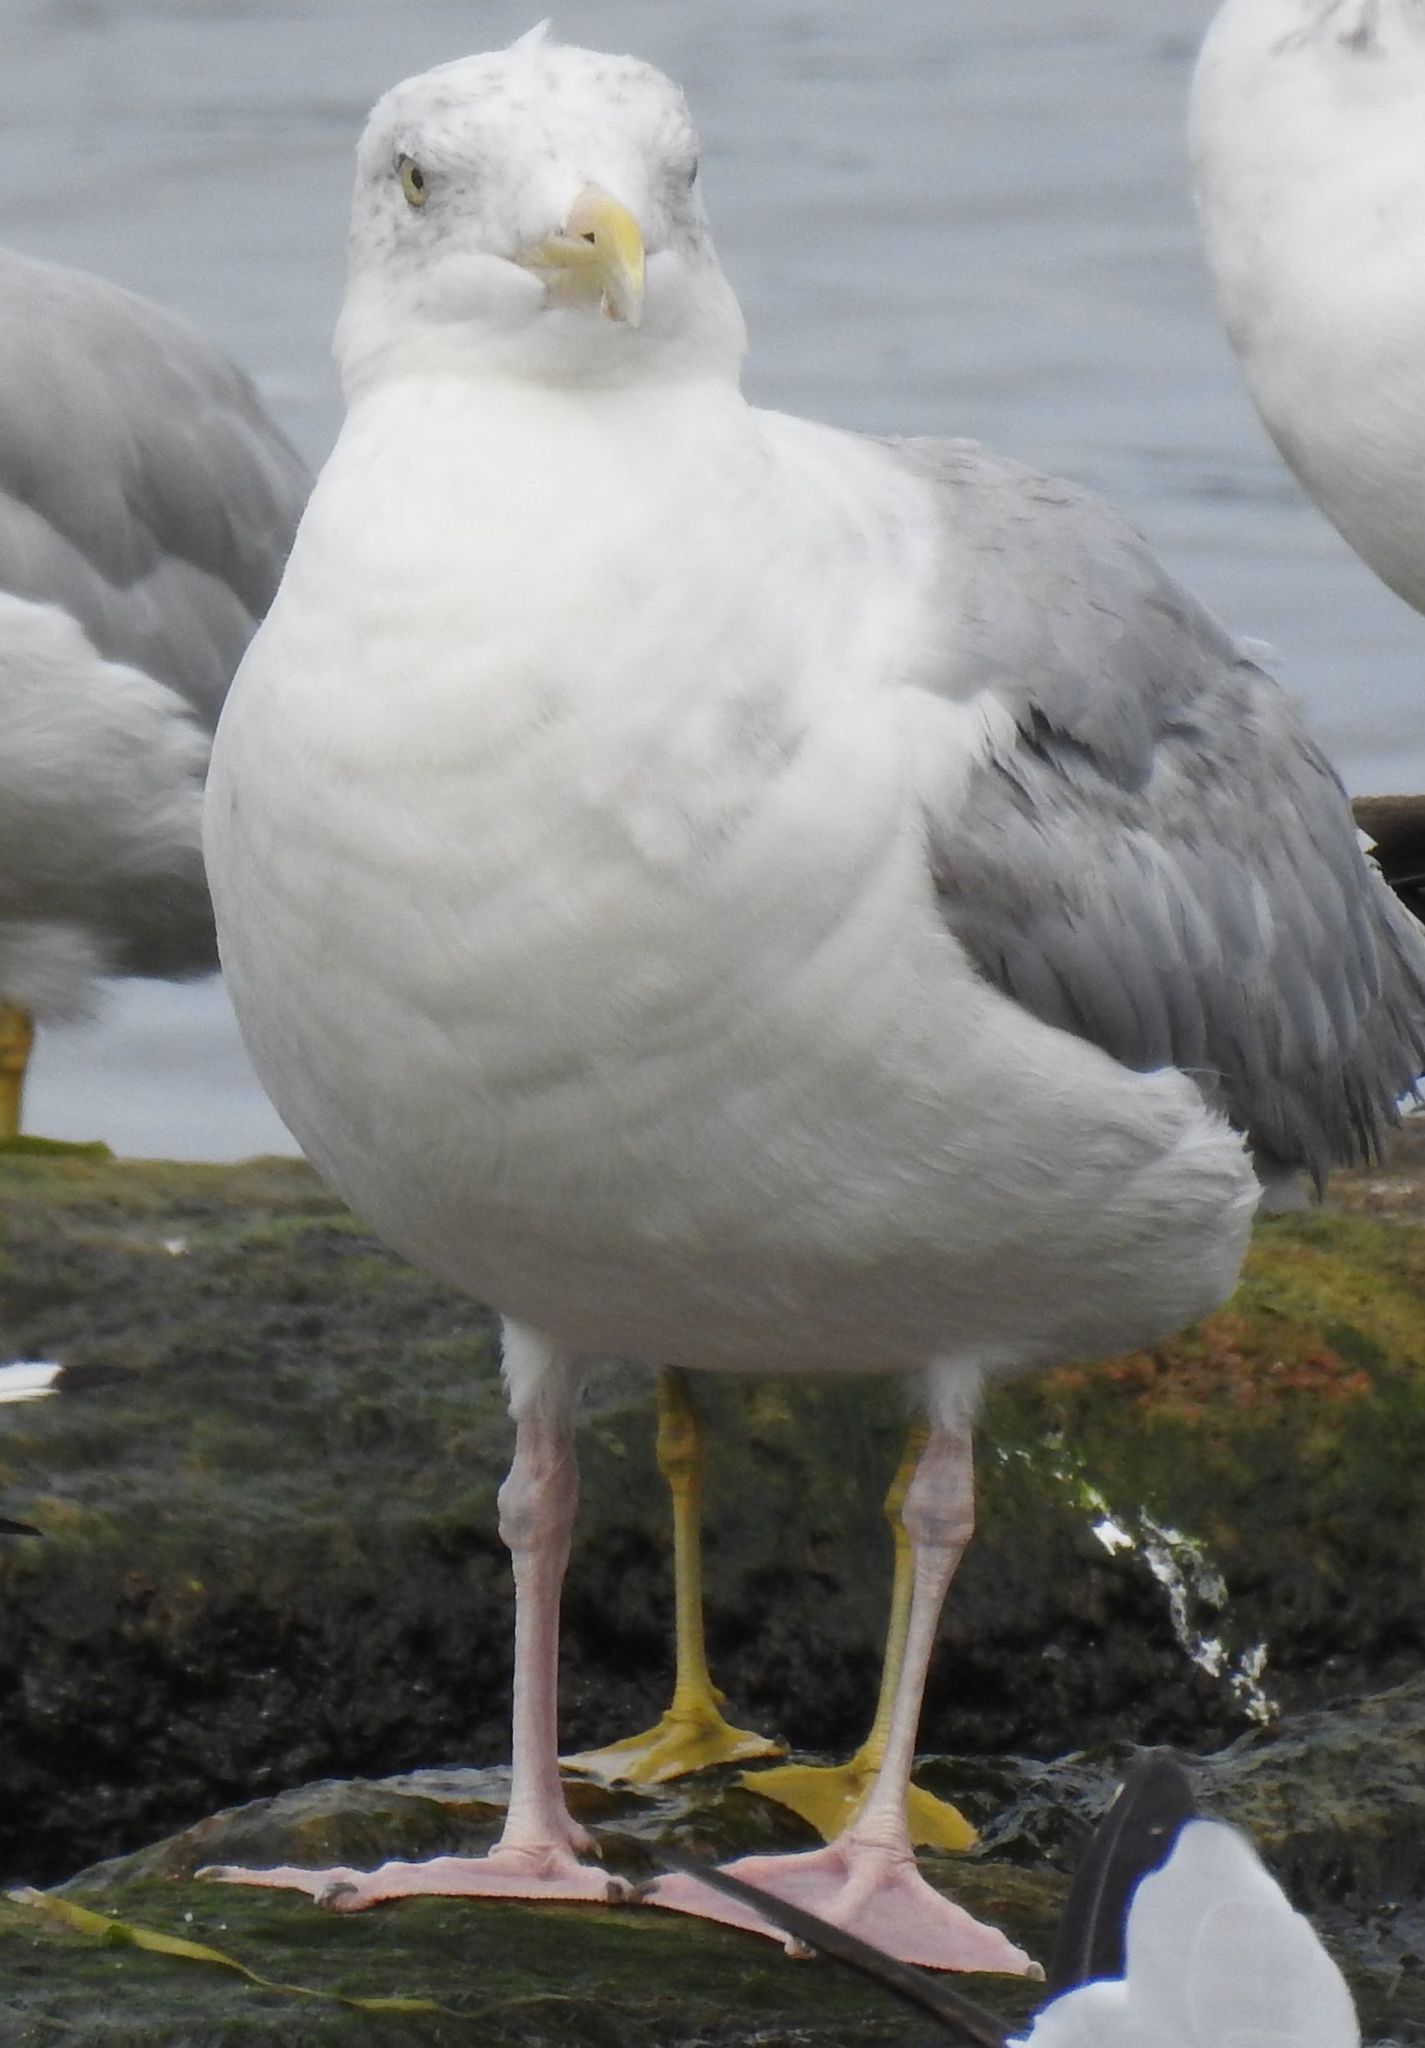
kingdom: Animalia
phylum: Chordata
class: Aves
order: Charadriiformes
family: Laridae
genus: Larus
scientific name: Larus argentatus
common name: Herring gull
